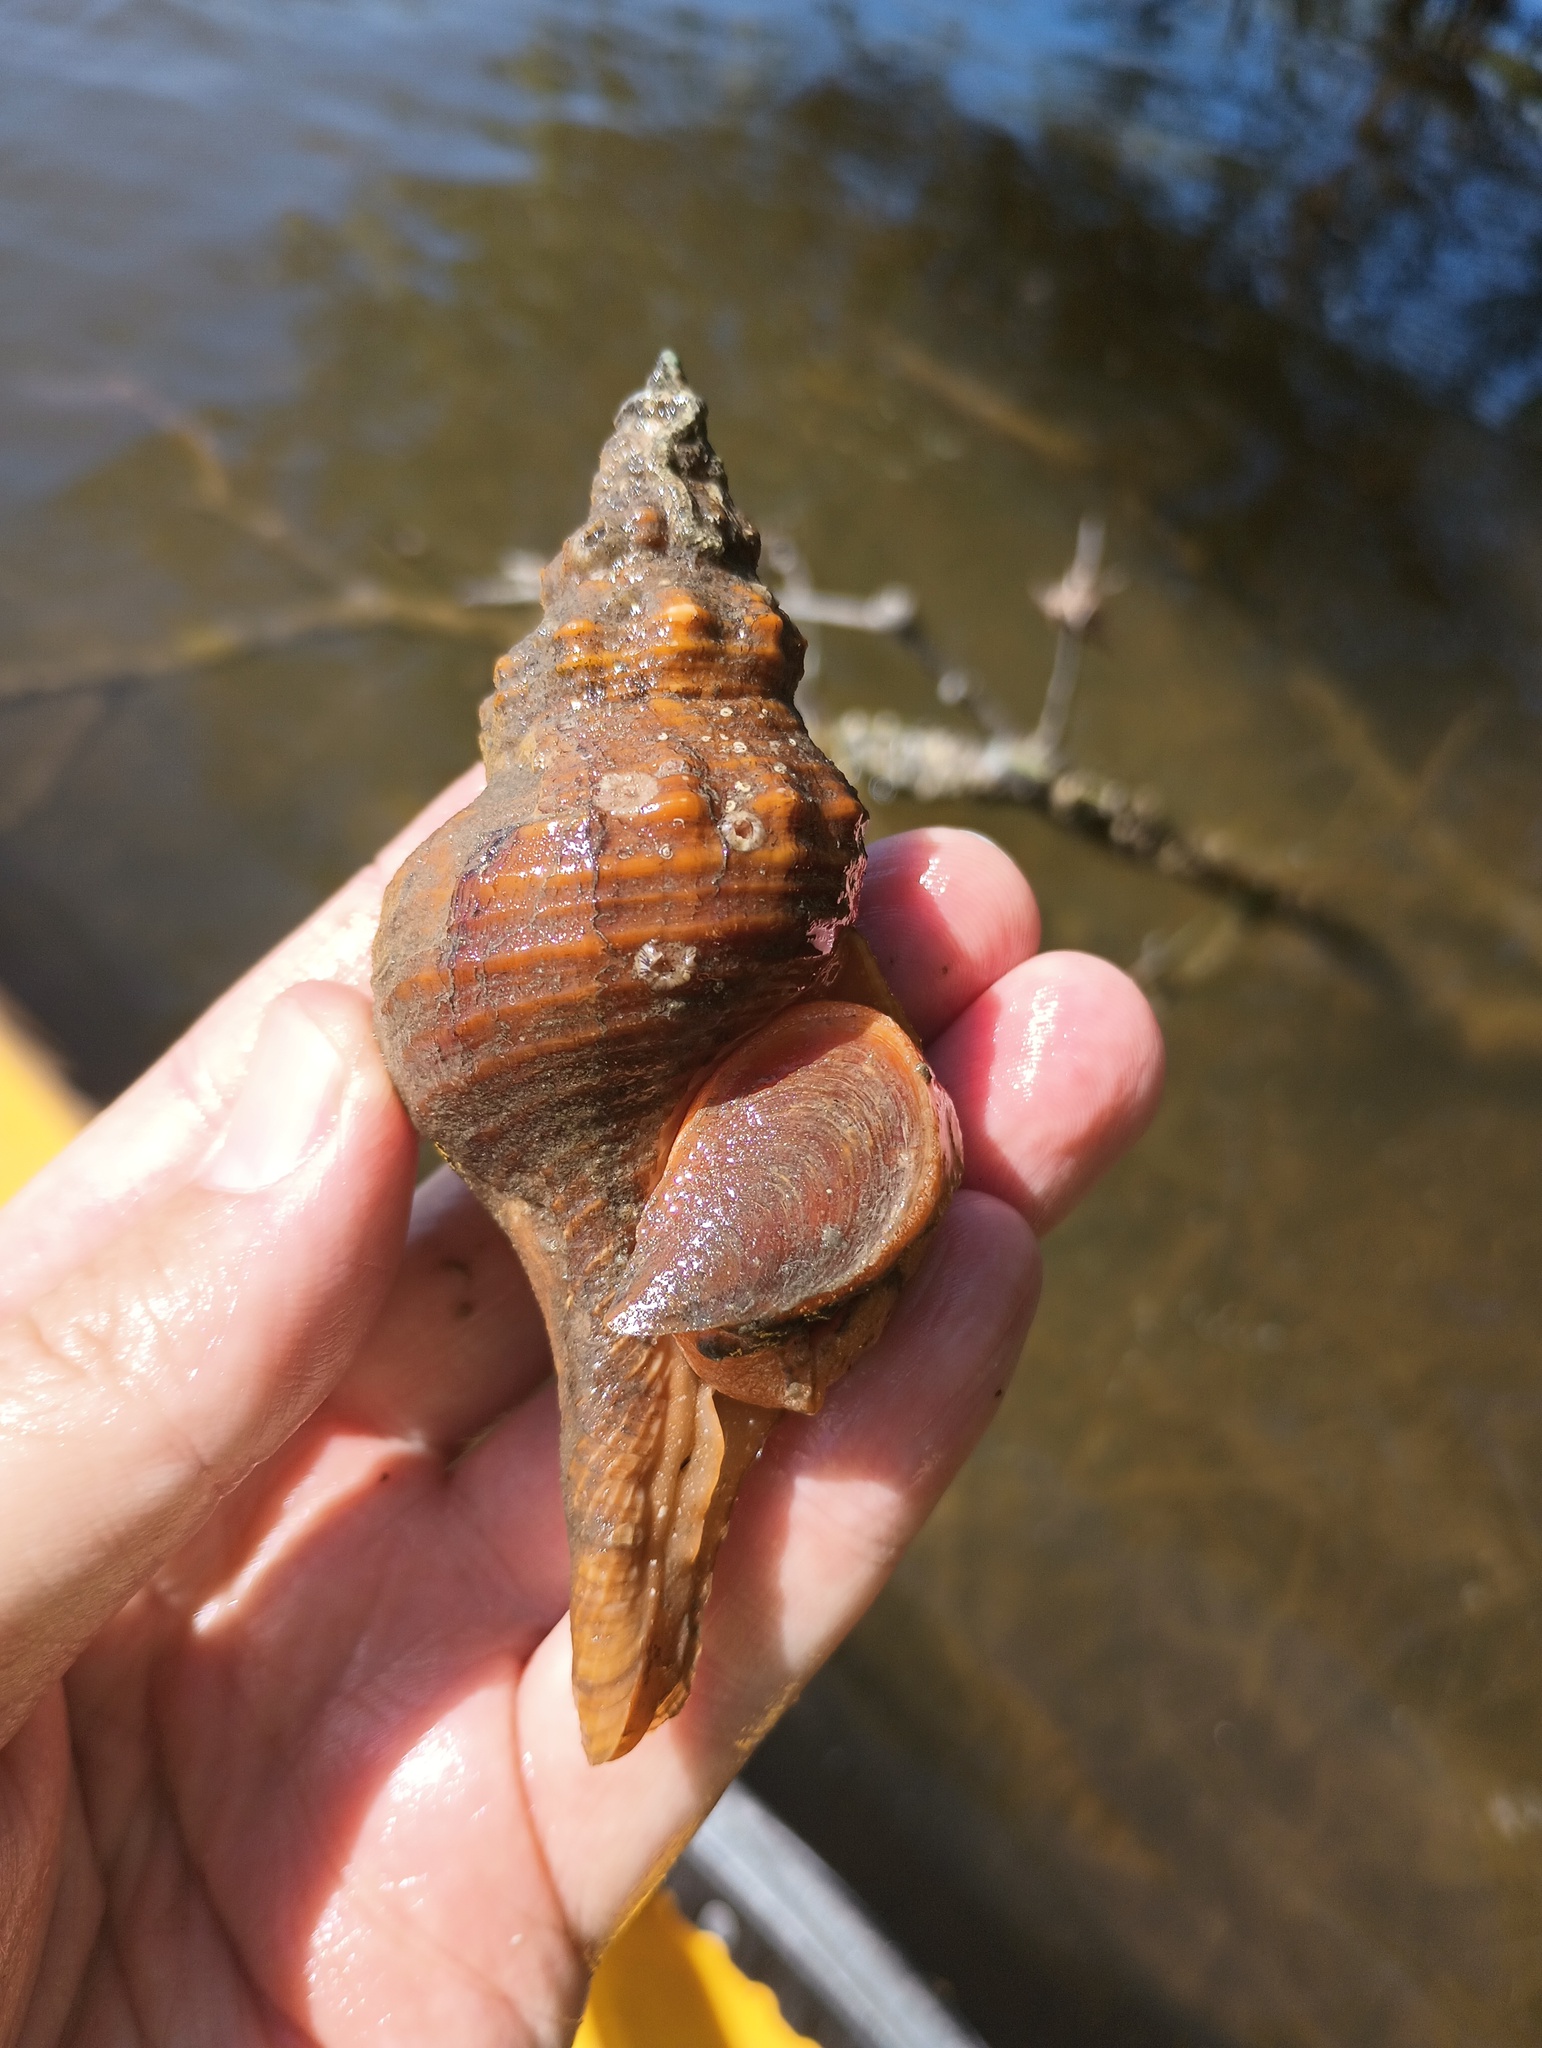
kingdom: Animalia
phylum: Mollusca
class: Gastropoda
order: Neogastropoda
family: Fasciolariidae
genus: Triplofusus
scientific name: Triplofusus giganteus
